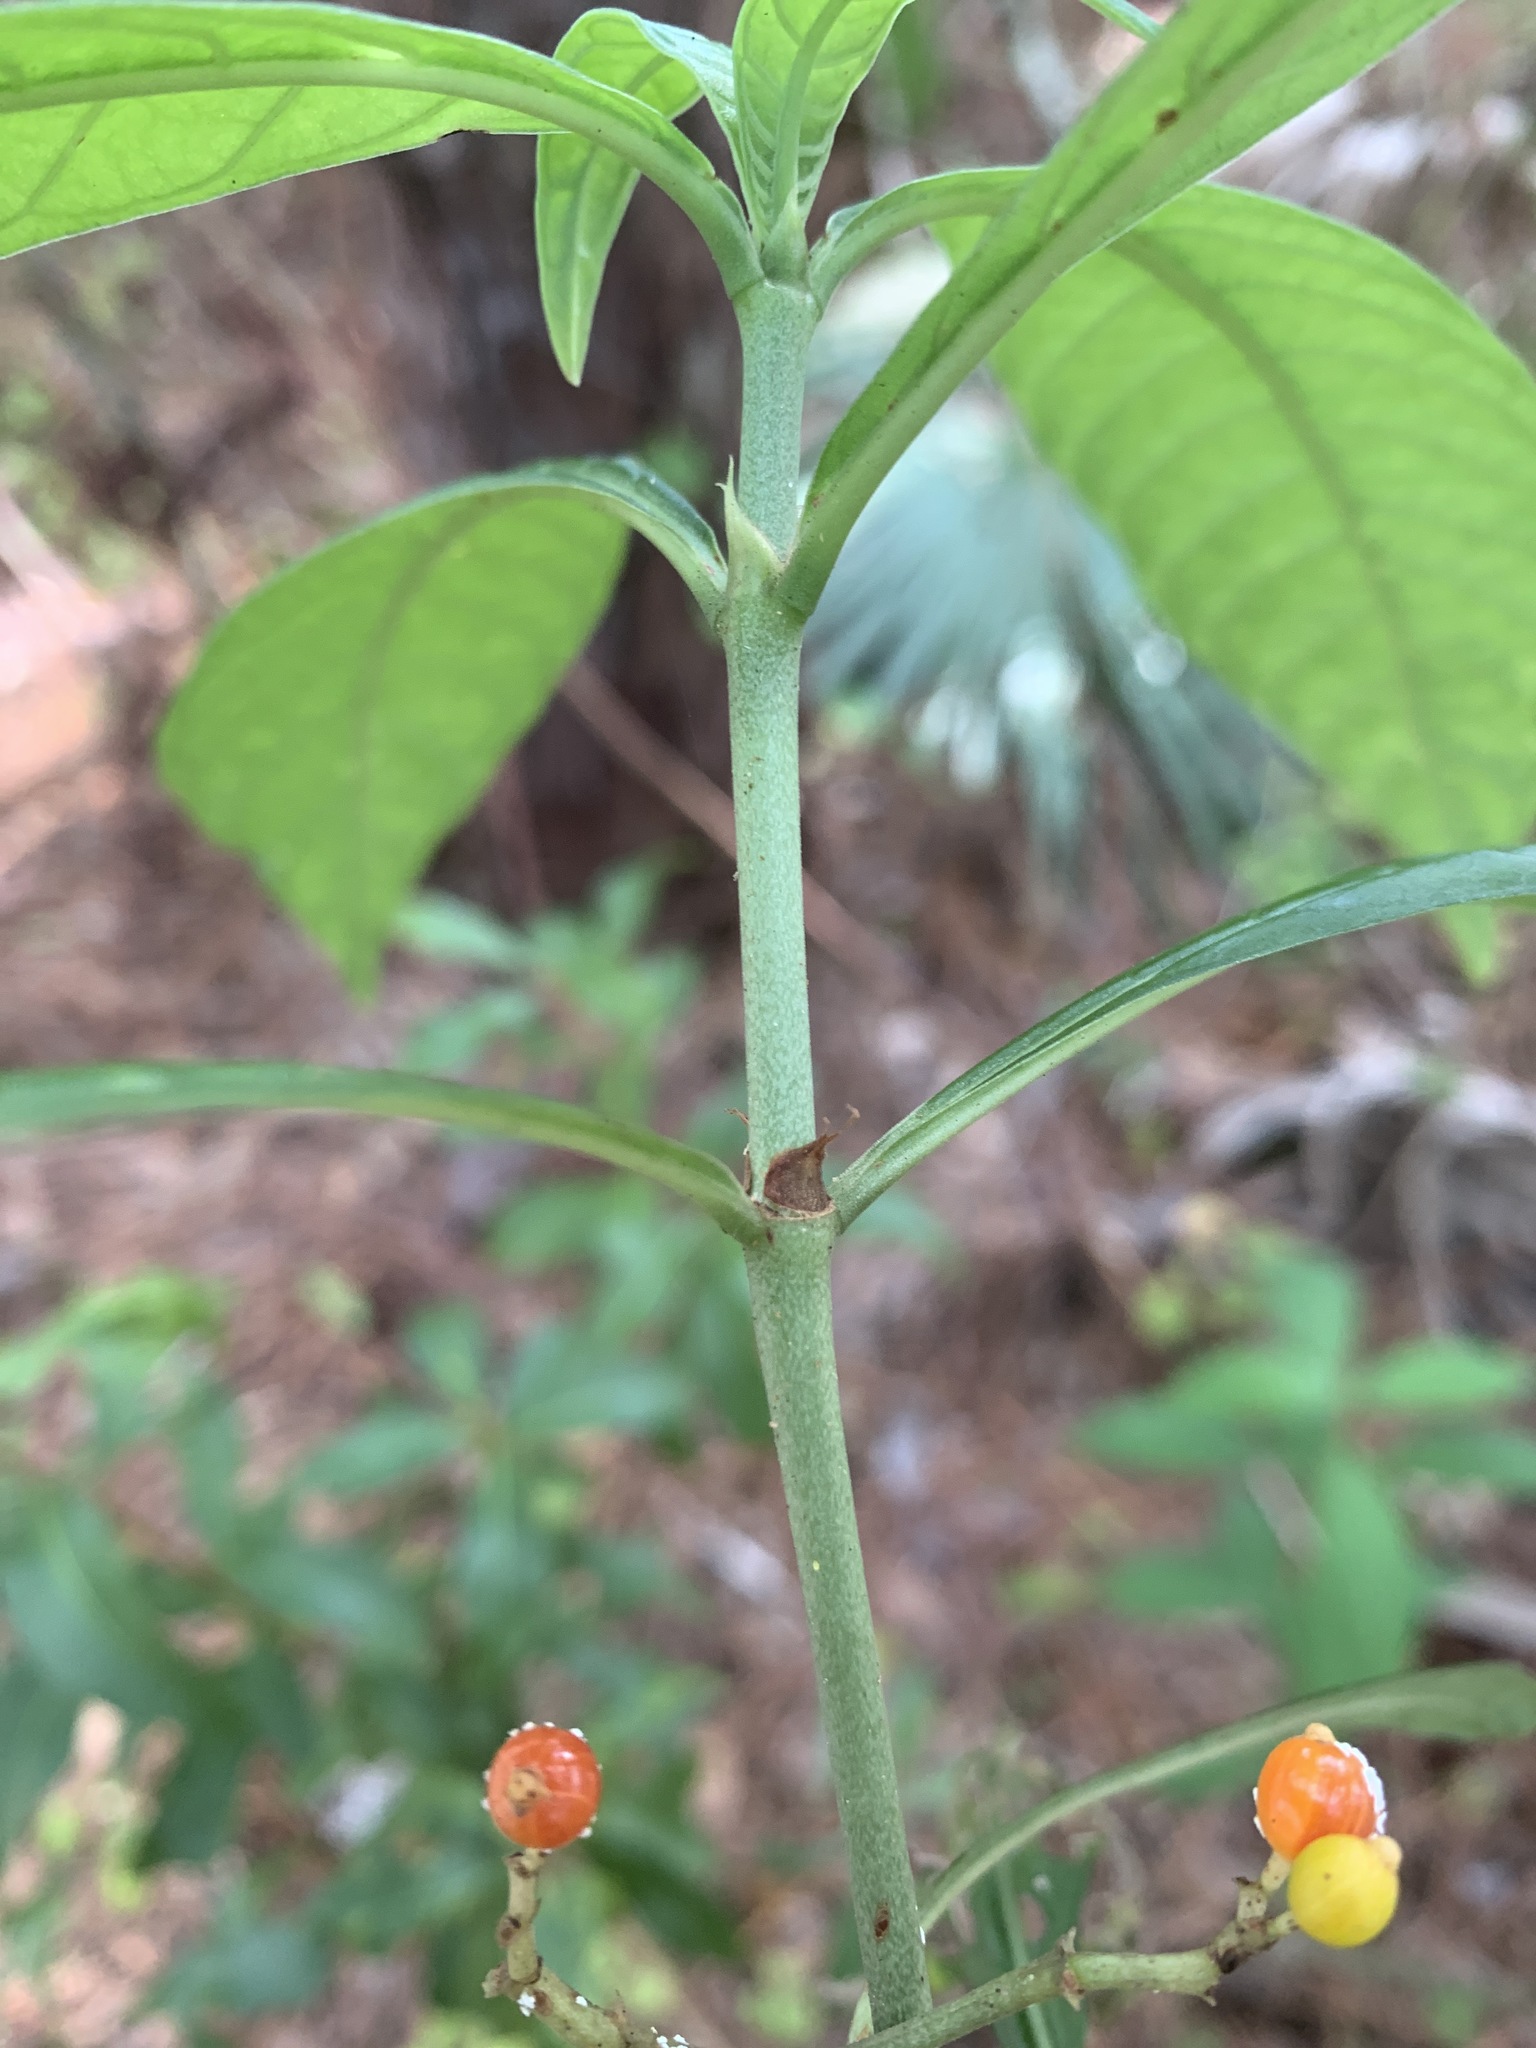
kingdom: Plantae
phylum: Tracheophyta
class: Magnoliopsida
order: Gentianales
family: Rubiaceae
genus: Psychotria
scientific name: Psychotria tenuifolia
